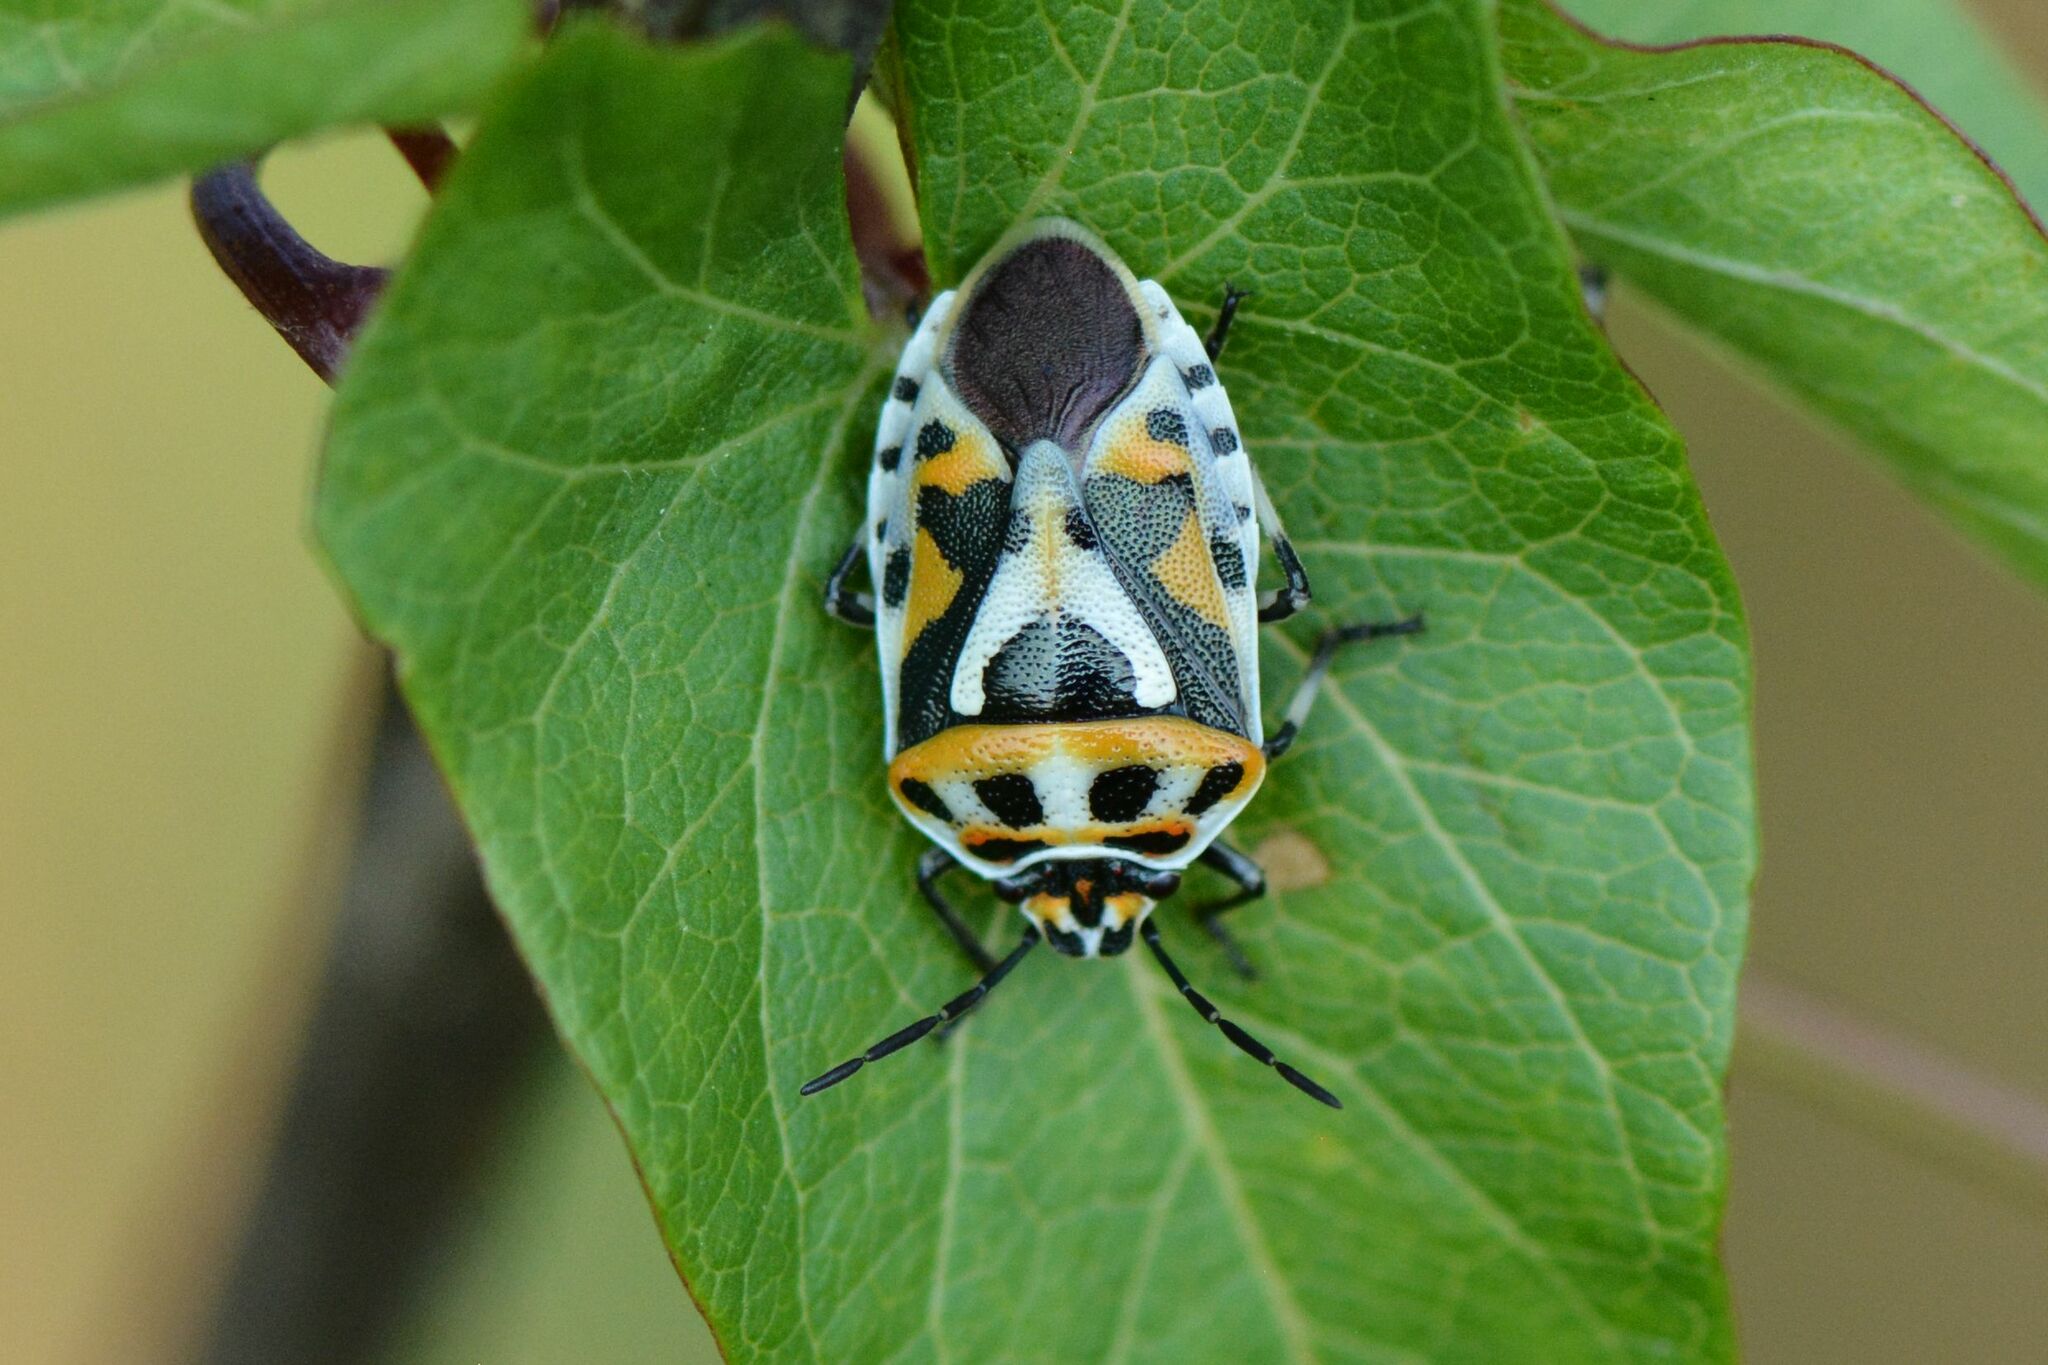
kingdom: Animalia
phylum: Arthropoda
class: Insecta
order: Hemiptera
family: Pentatomidae
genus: Eurydema
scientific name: Eurydema ornata
